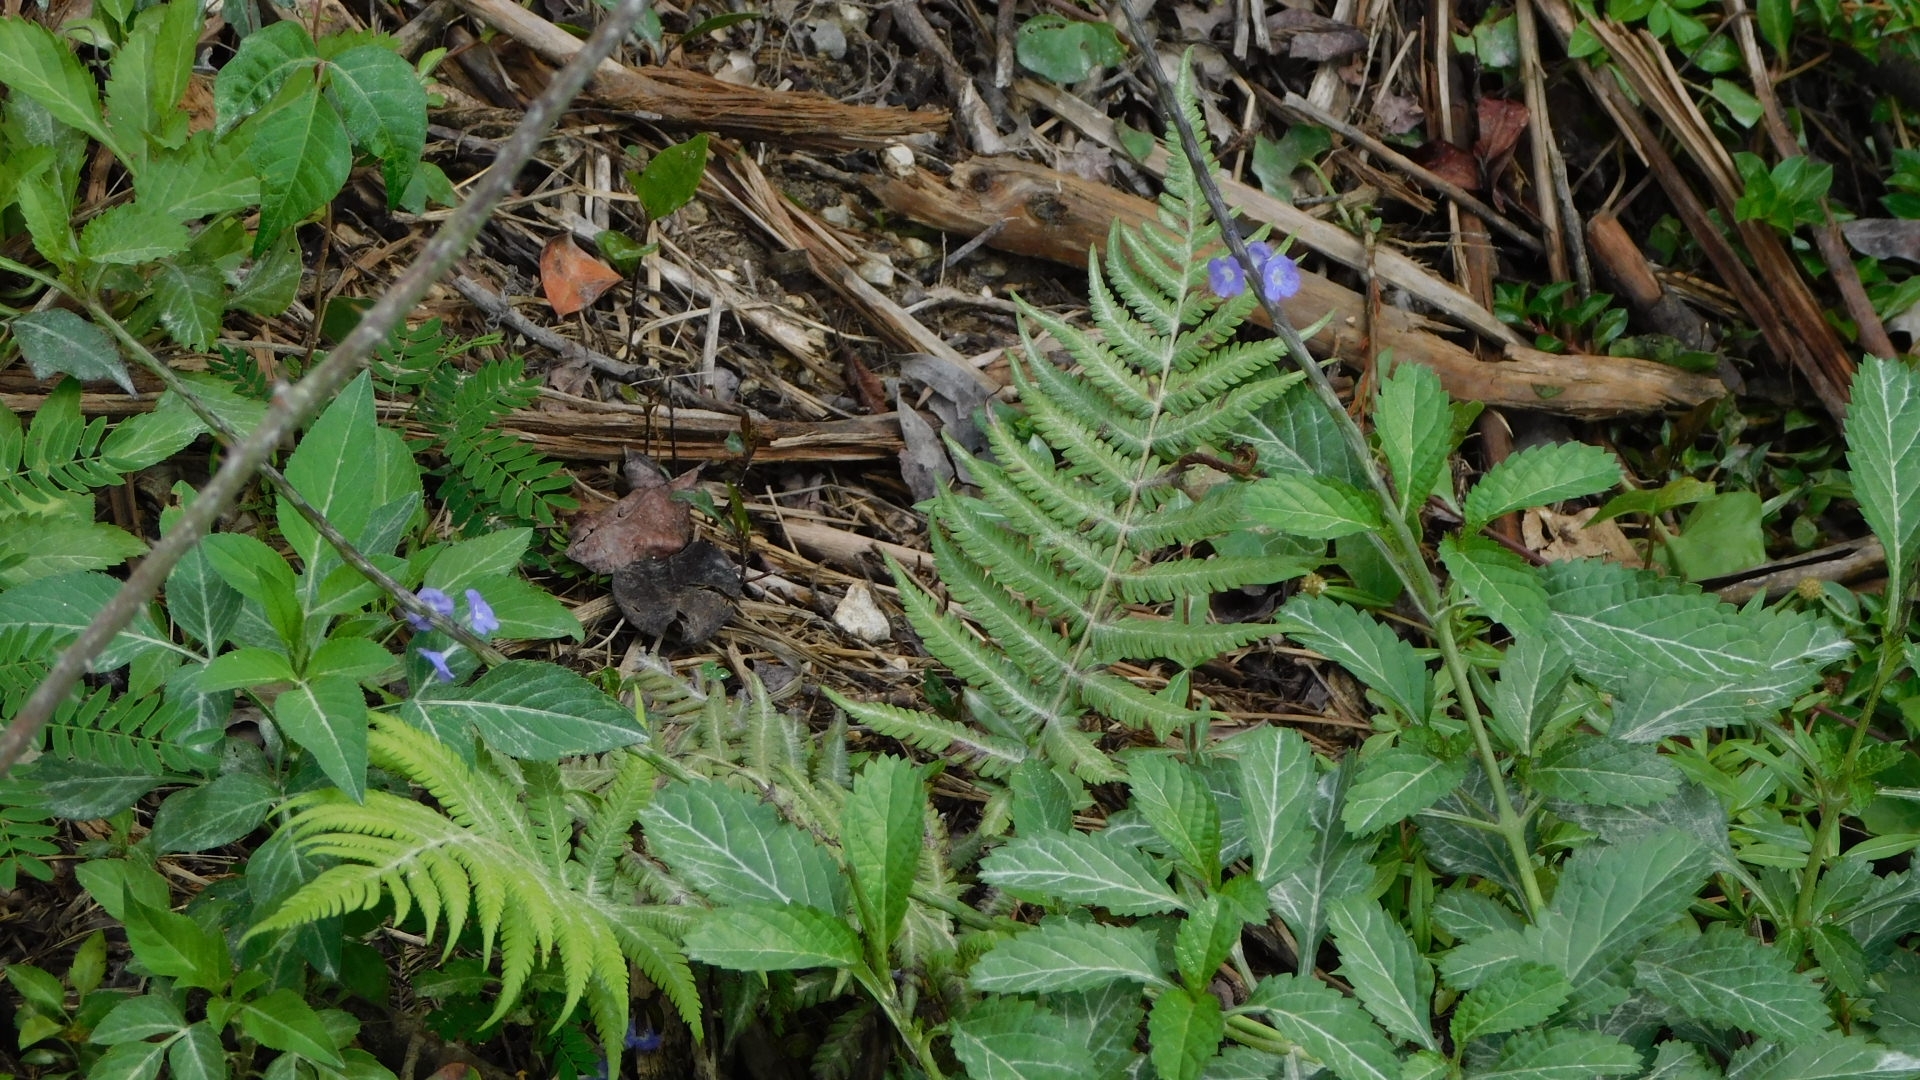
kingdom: Plantae
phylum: Tracheophyta
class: Magnoliopsida
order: Lamiales
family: Verbenaceae
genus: Stachytarpheta
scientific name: Stachytarpheta jamaicensis
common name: Light-blue snakeweed
